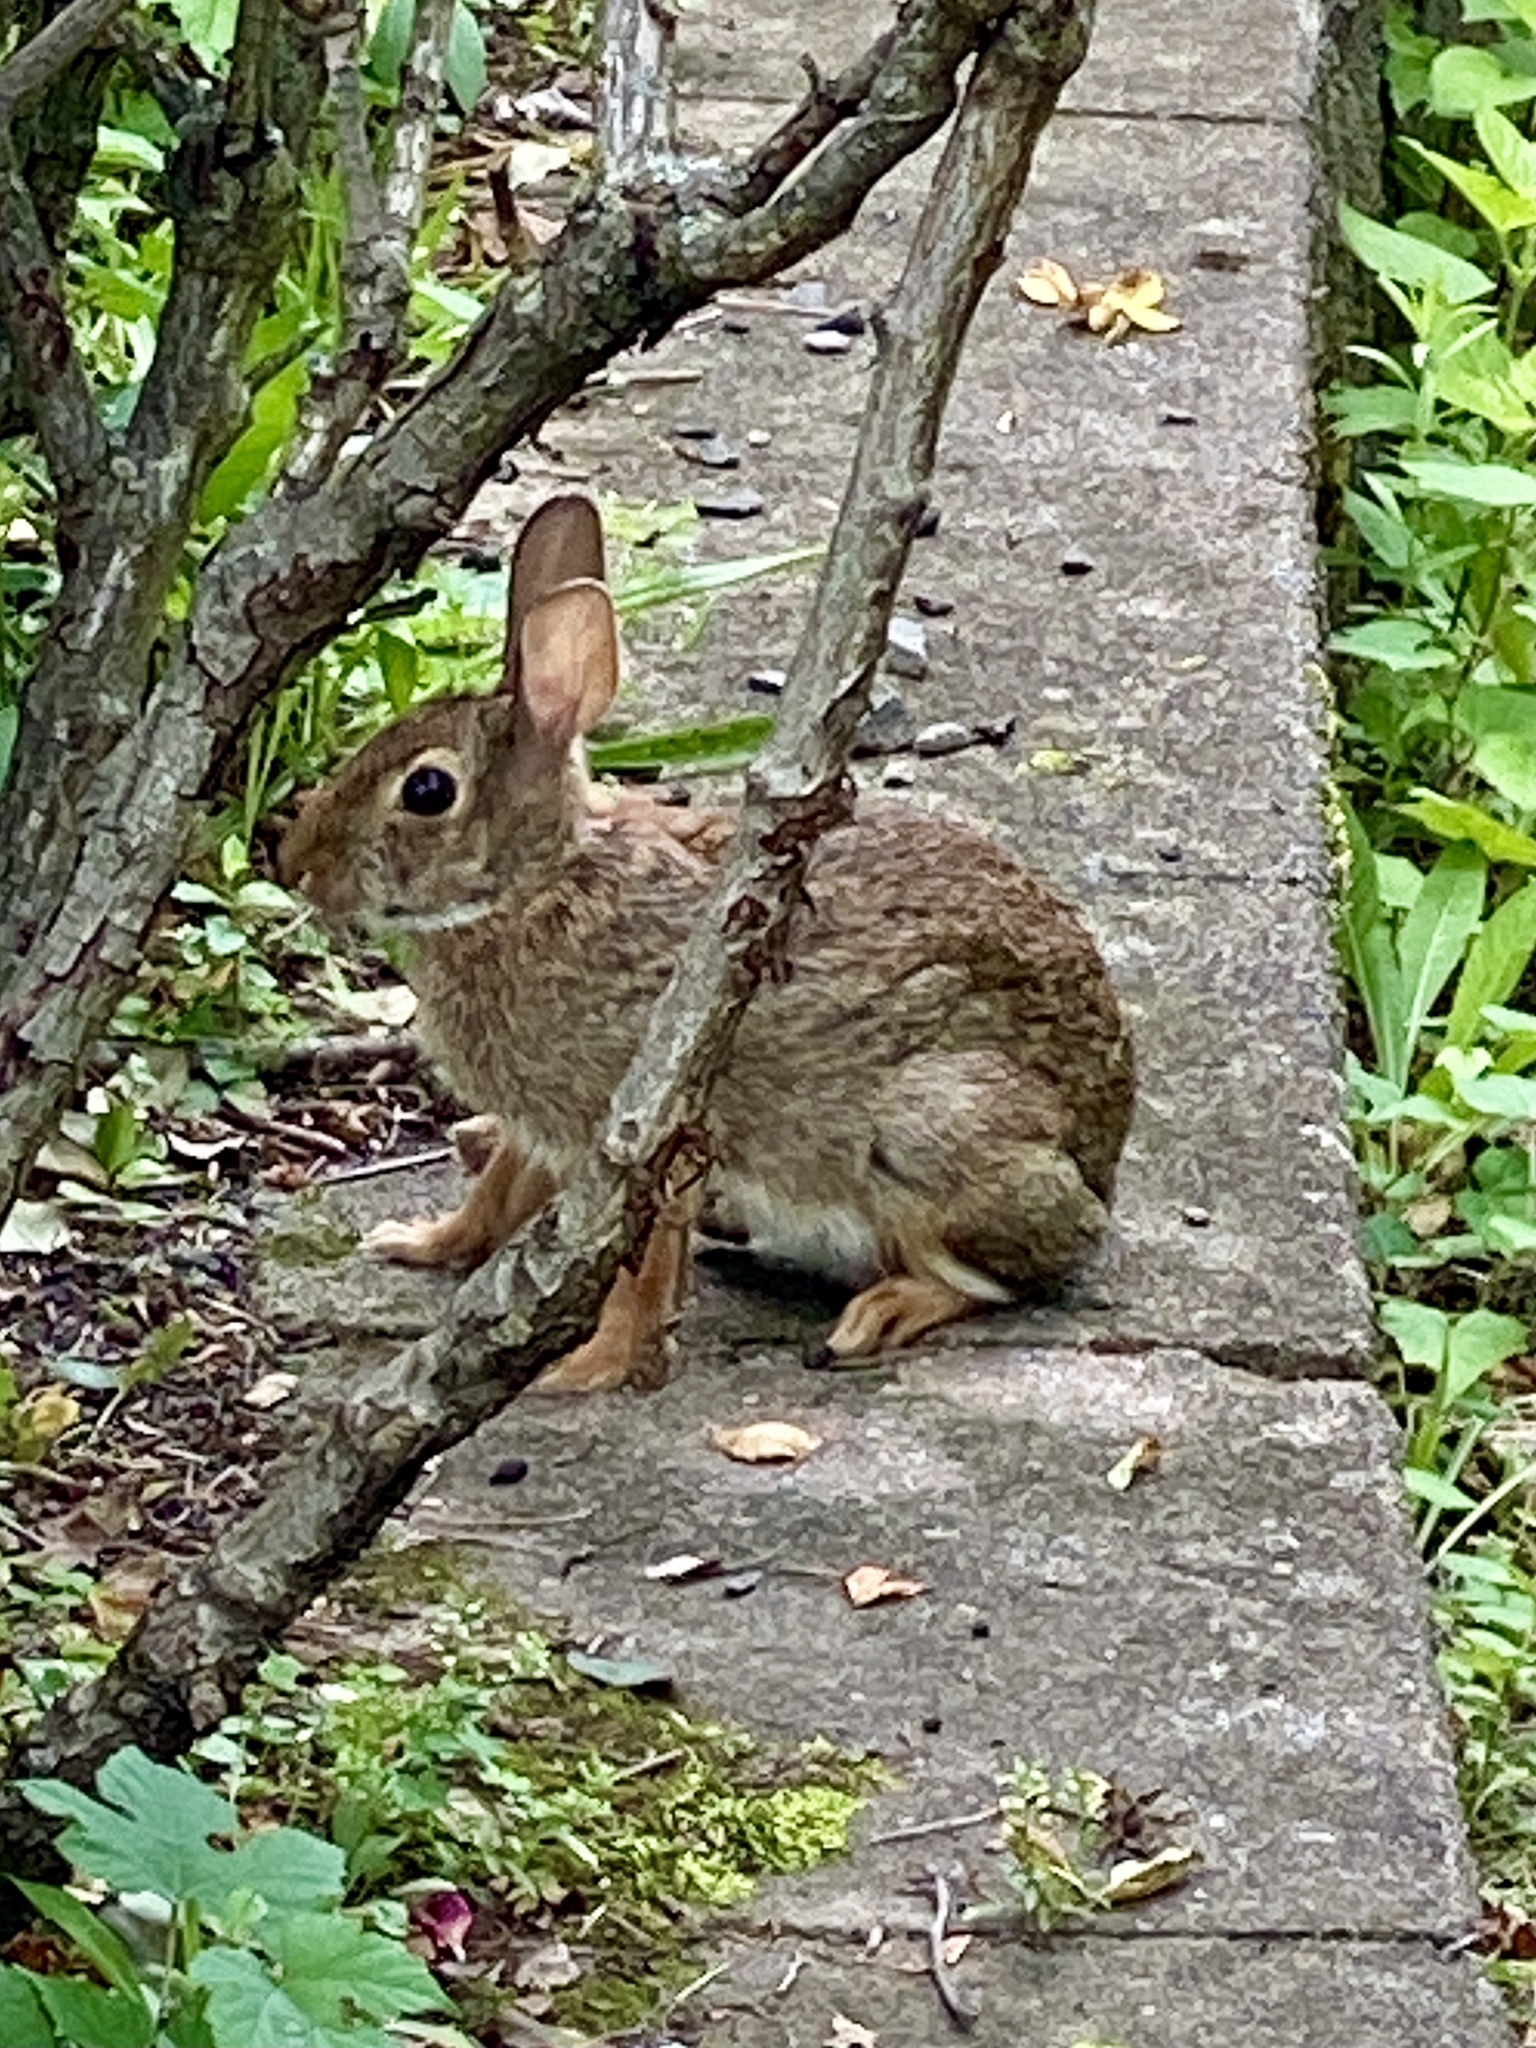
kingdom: Animalia
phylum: Chordata
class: Mammalia
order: Lagomorpha
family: Leporidae
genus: Sylvilagus
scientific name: Sylvilagus floridanus
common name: Eastern cottontail
